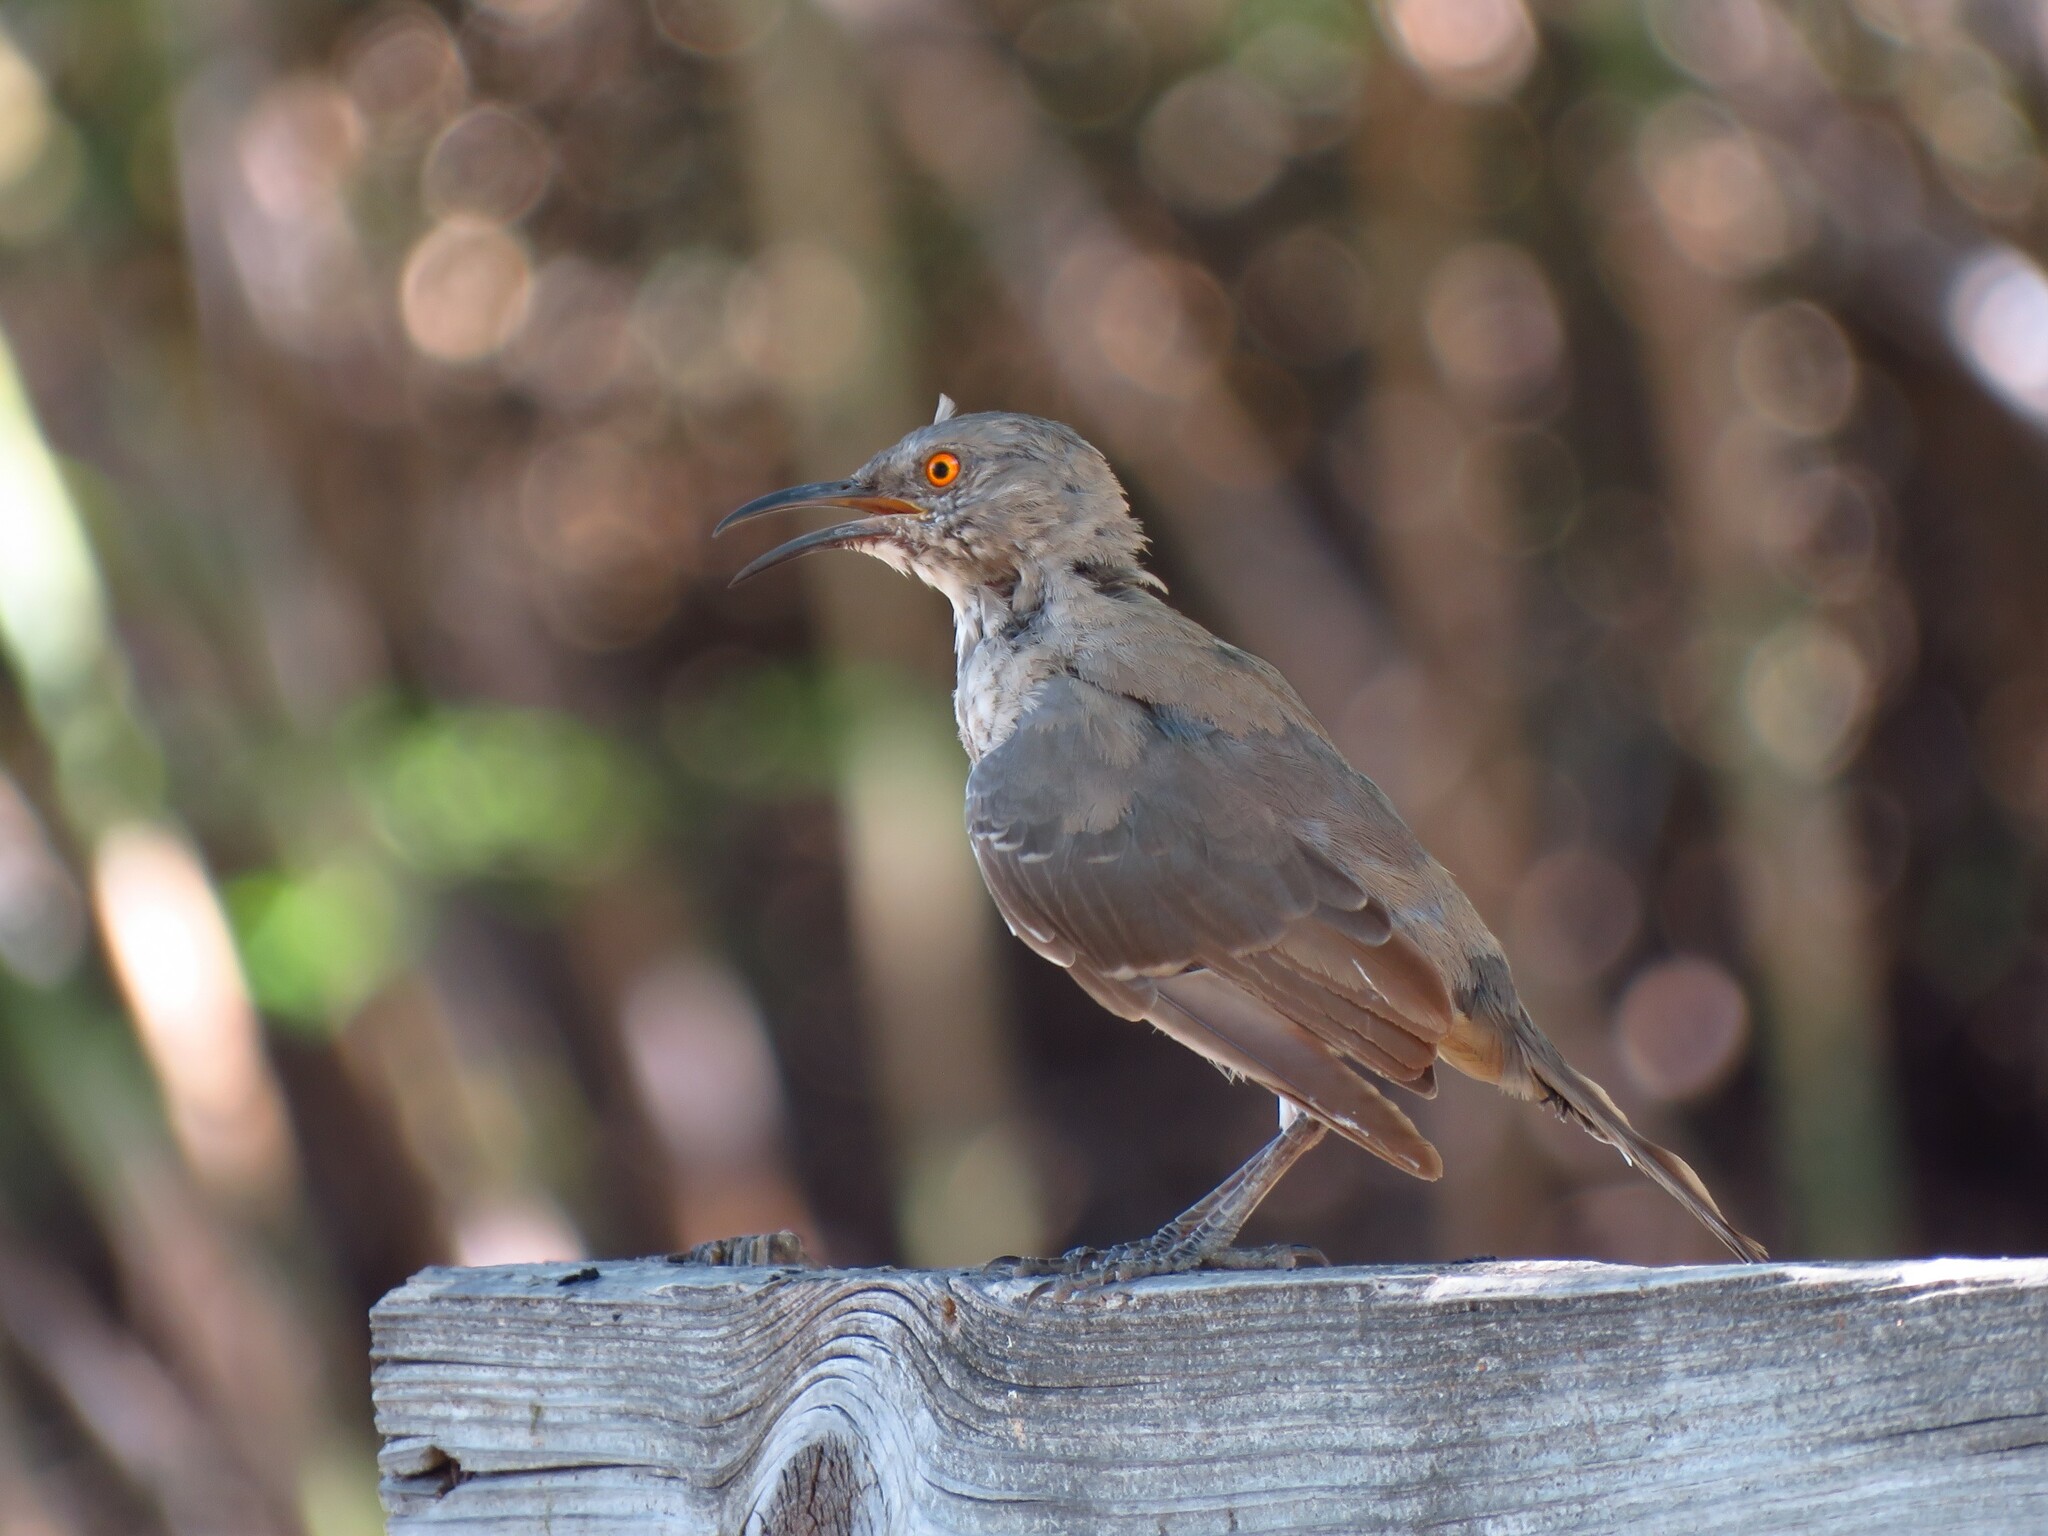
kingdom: Animalia
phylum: Chordata
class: Aves
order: Passeriformes
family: Mimidae
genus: Toxostoma
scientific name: Toxostoma curvirostre
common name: Curve-billed thrasher
